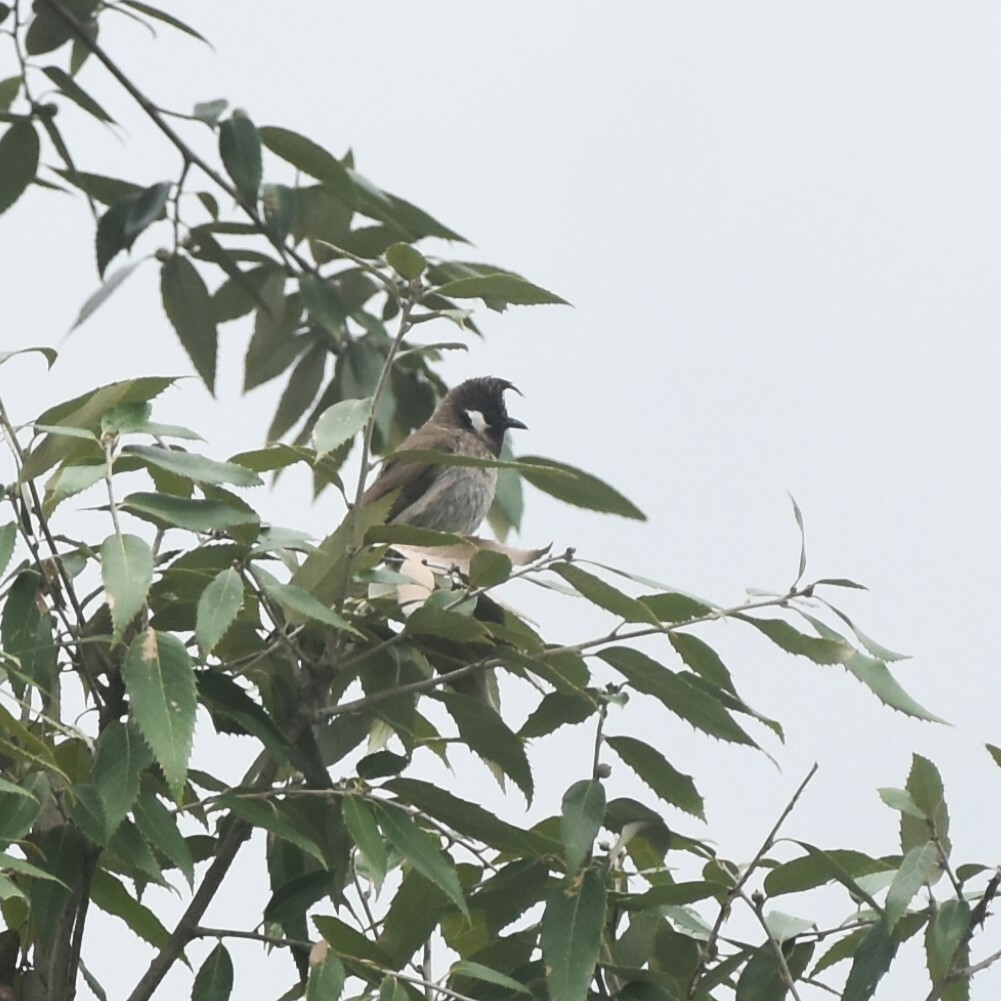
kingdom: Animalia
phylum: Chordata
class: Aves
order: Passeriformes
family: Pycnonotidae
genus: Pycnonotus
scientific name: Pycnonotus leucogenys
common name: Himalayan bulbul
